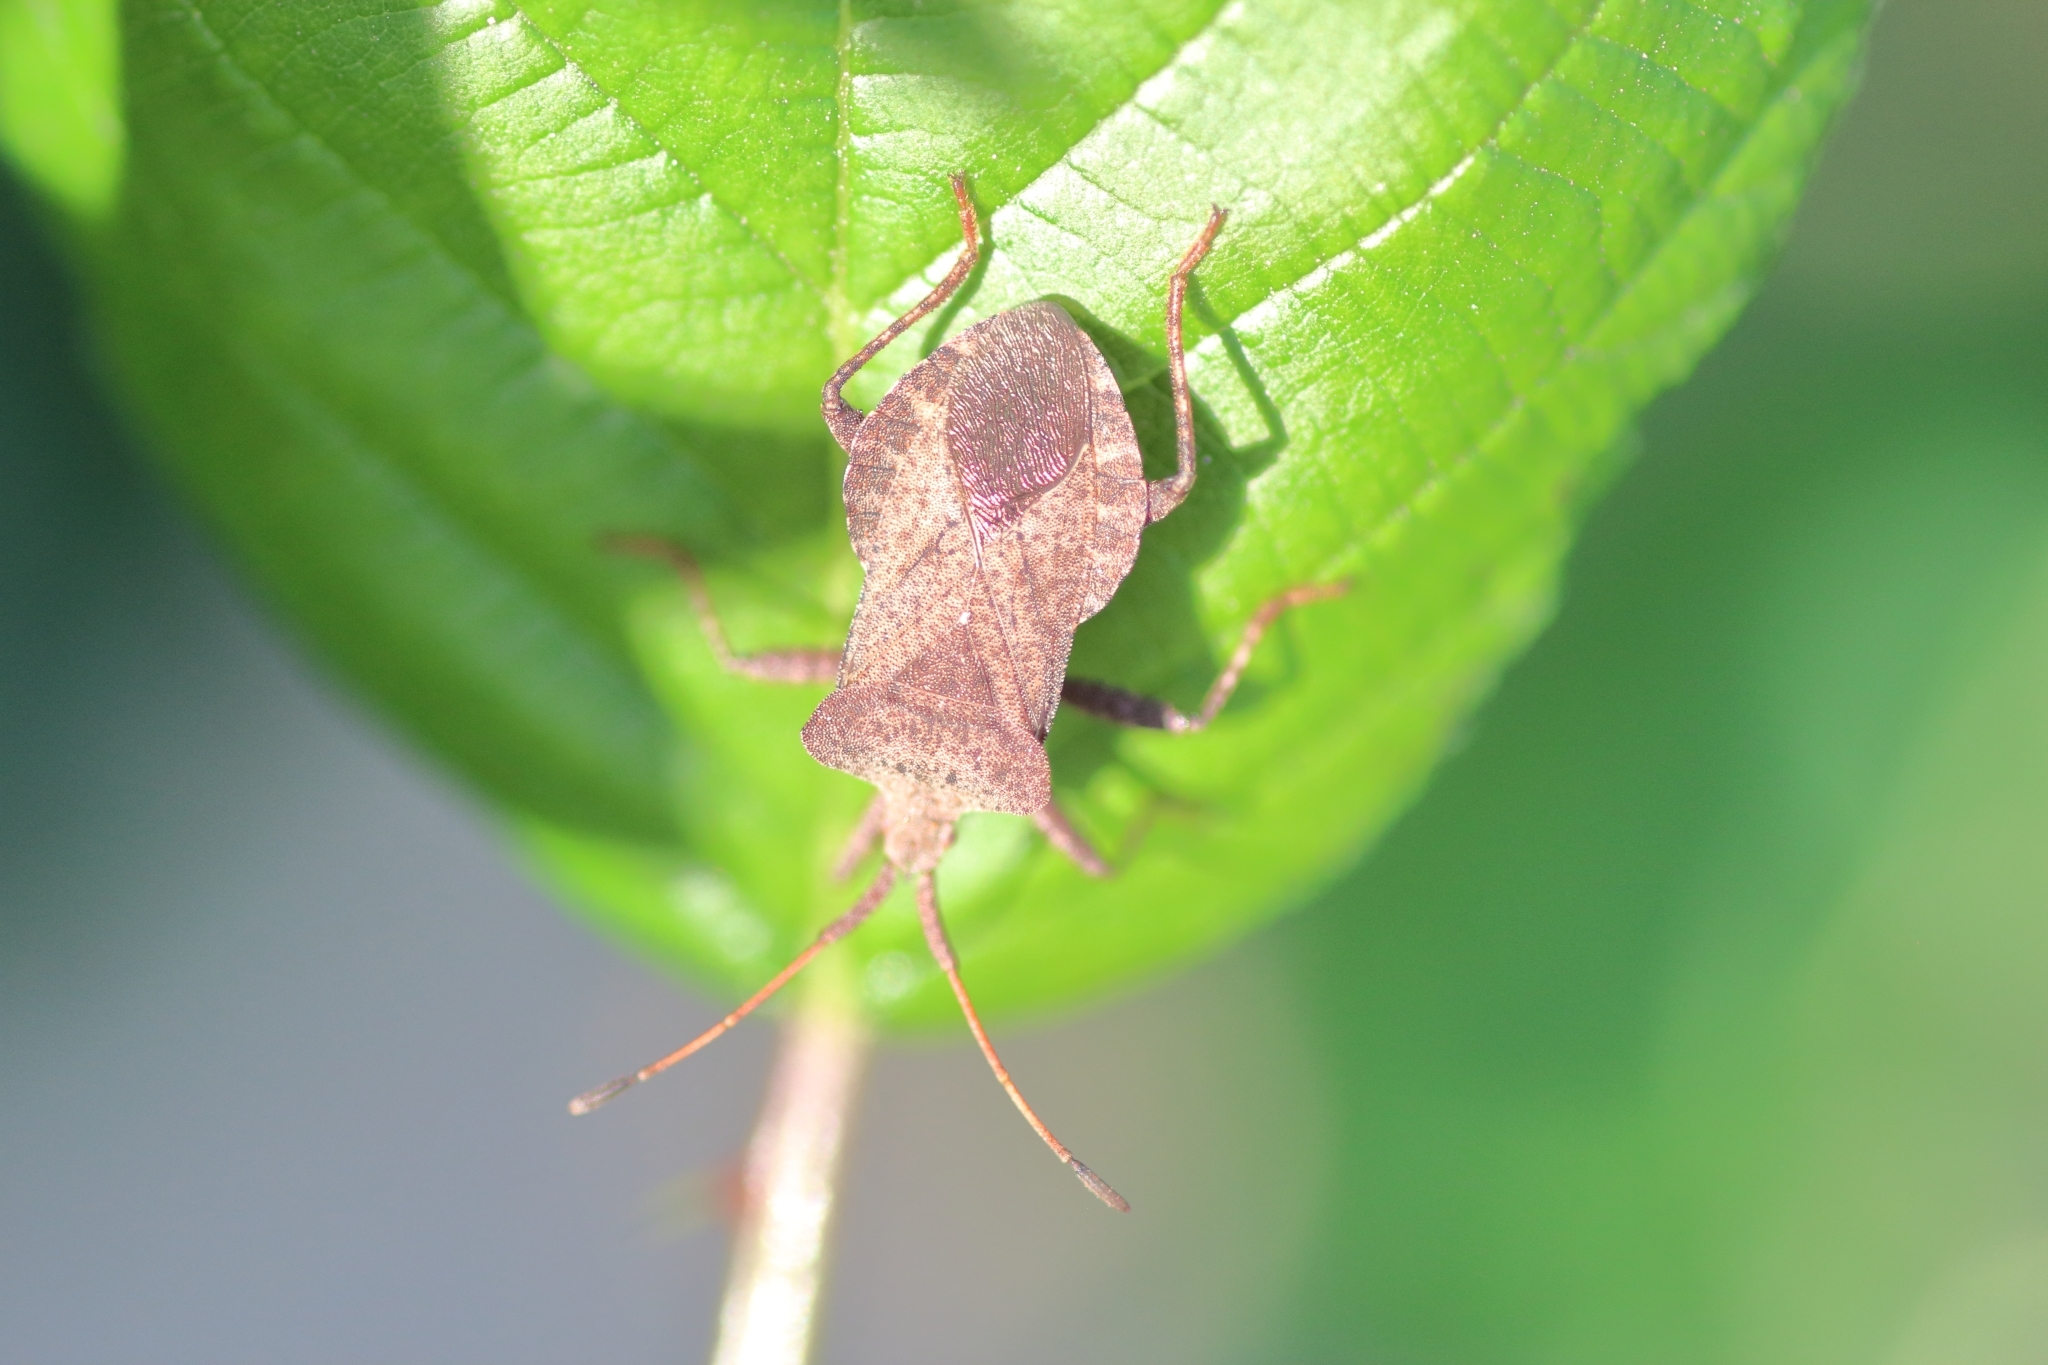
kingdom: Animalia
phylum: Arthropoda
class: Insecta
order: Hemiptera
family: Coreidae
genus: Coreus
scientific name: Coreus marginatus
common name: Dock bug
